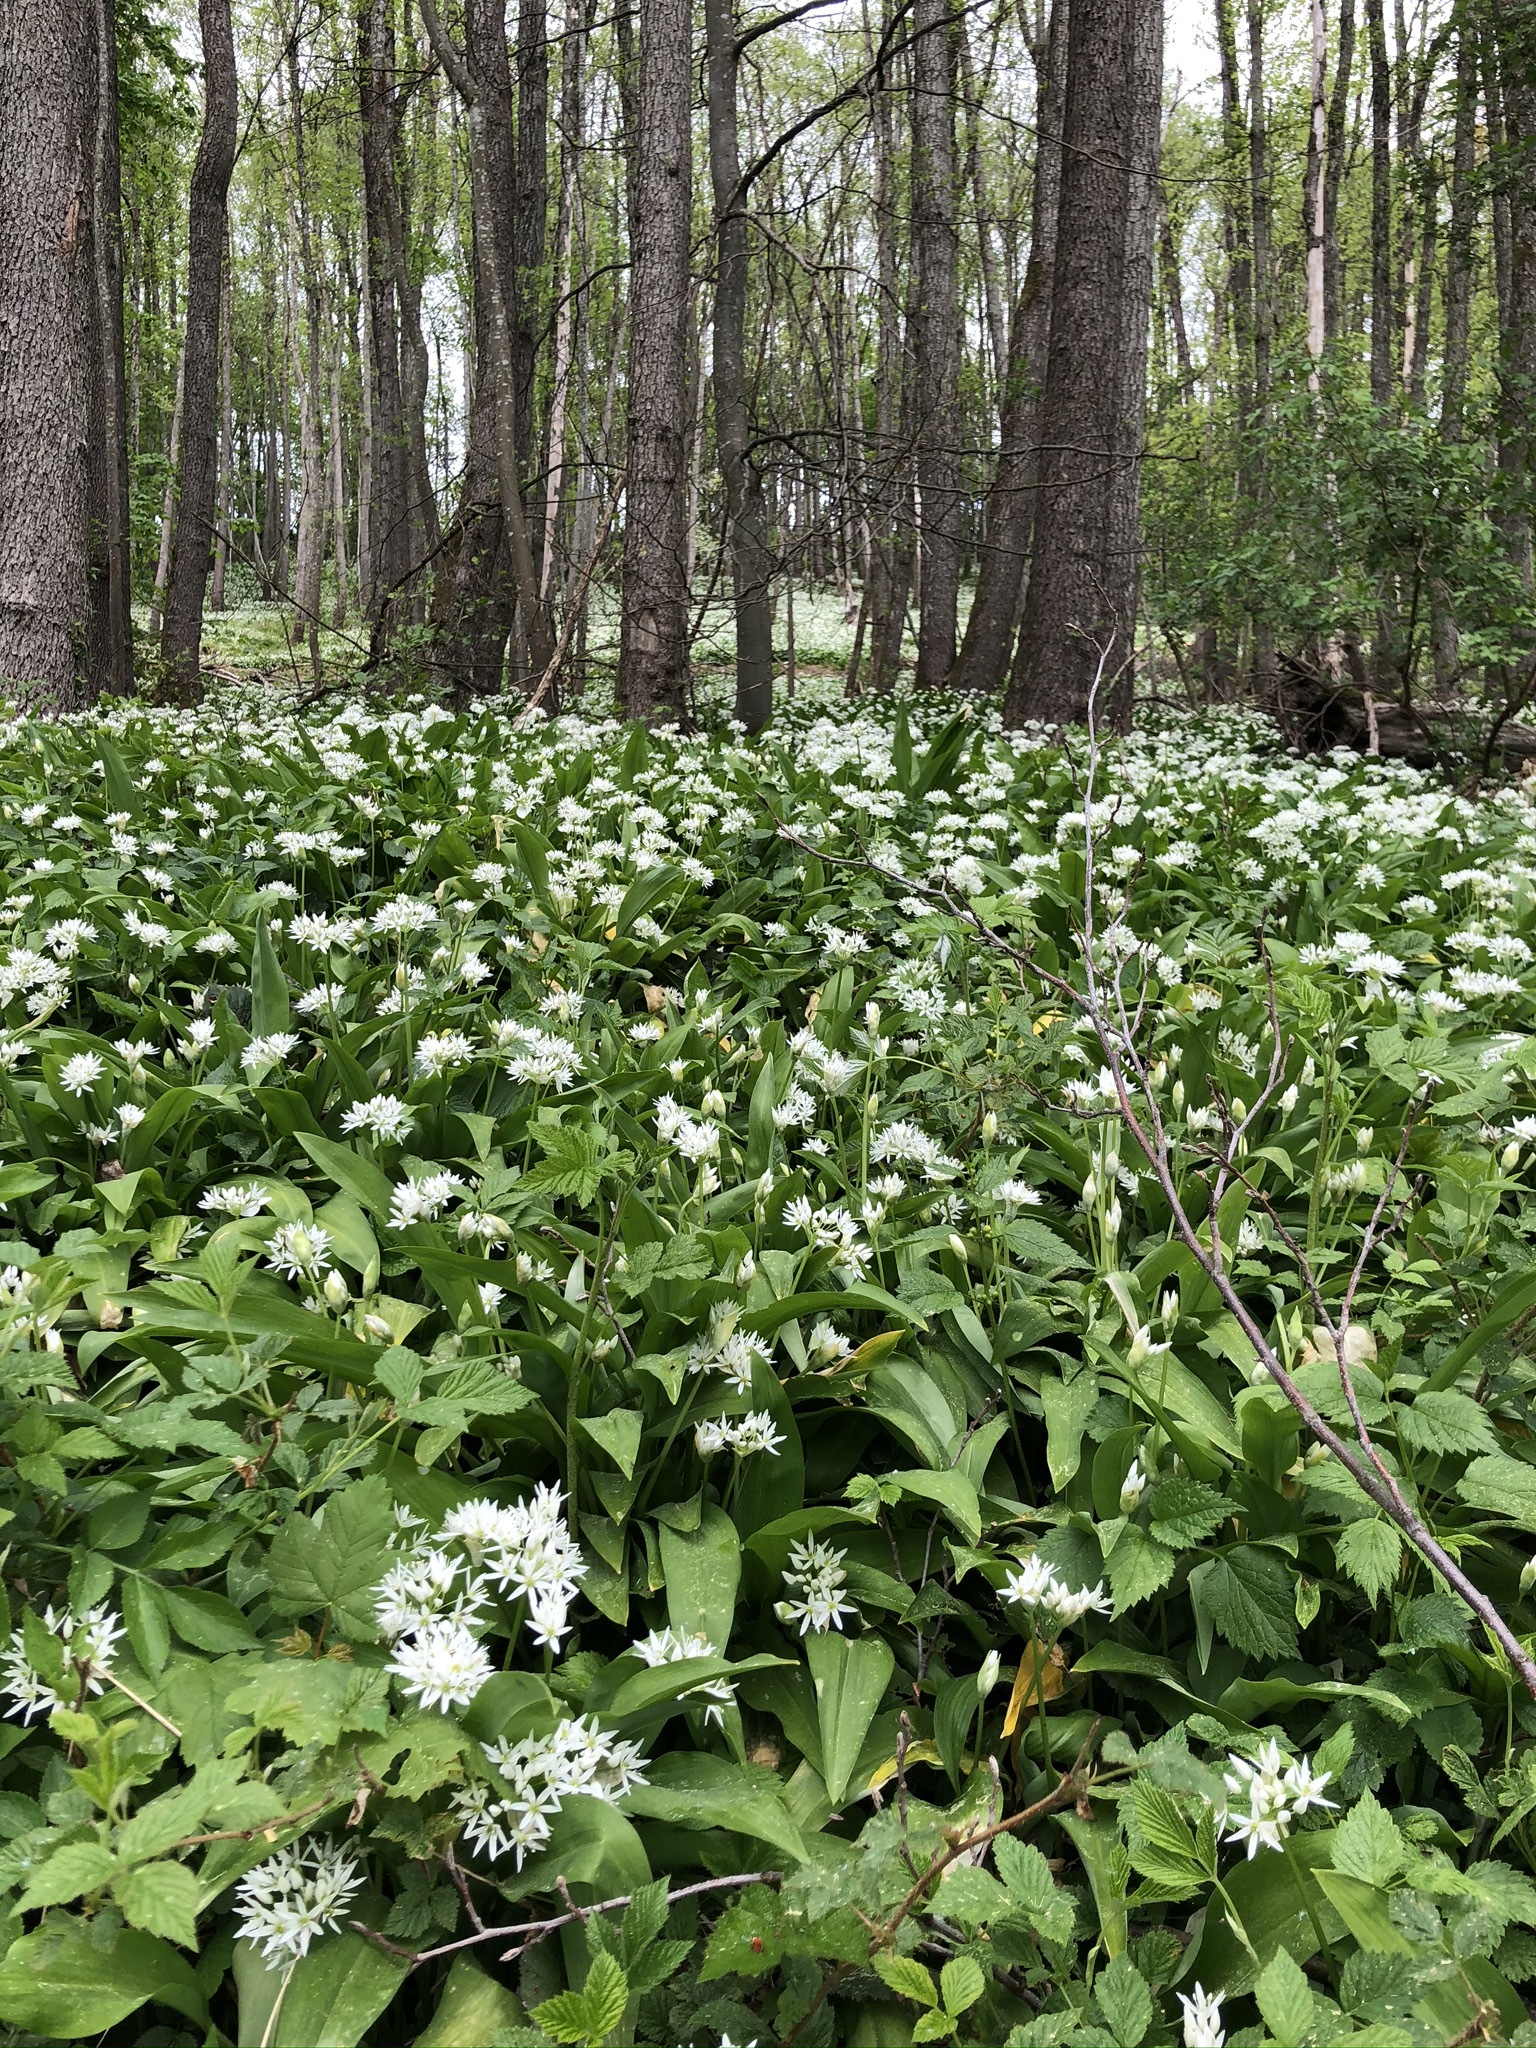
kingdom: Plantae
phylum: Tracheophyta
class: Liliopsida
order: Asparagales
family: Amaryllidaceae
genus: Allium
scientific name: Allium ursinum
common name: Ramsons
